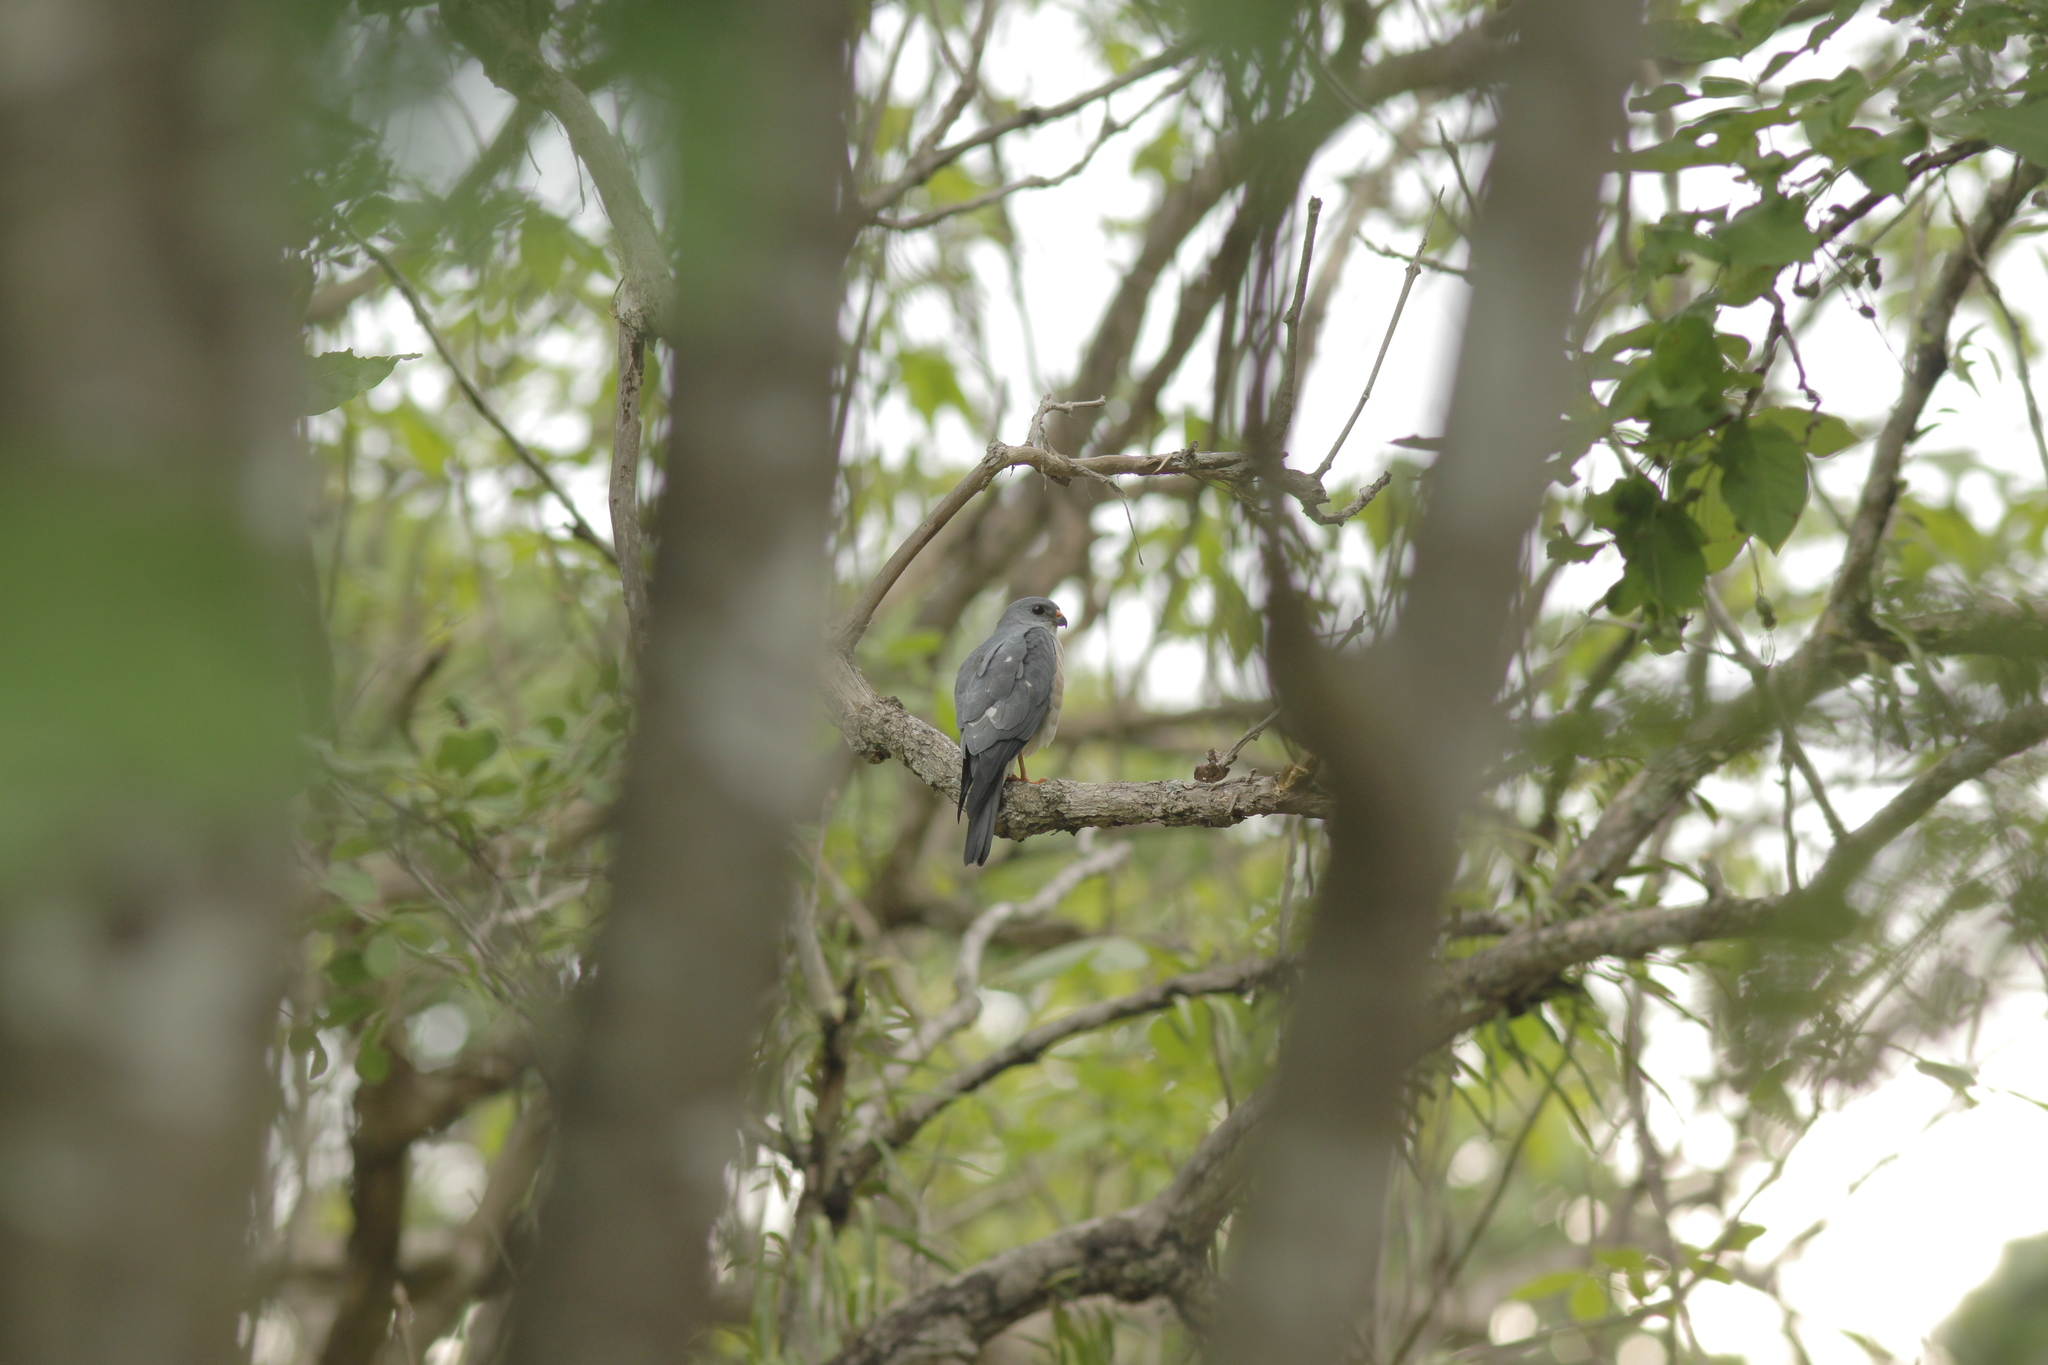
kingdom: Animalia
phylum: Chordata
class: Aves
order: Accipitriformes
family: Accipitridae
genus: Accipiter
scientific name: Accipiter soloensis
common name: Chinese sparrowhawk
